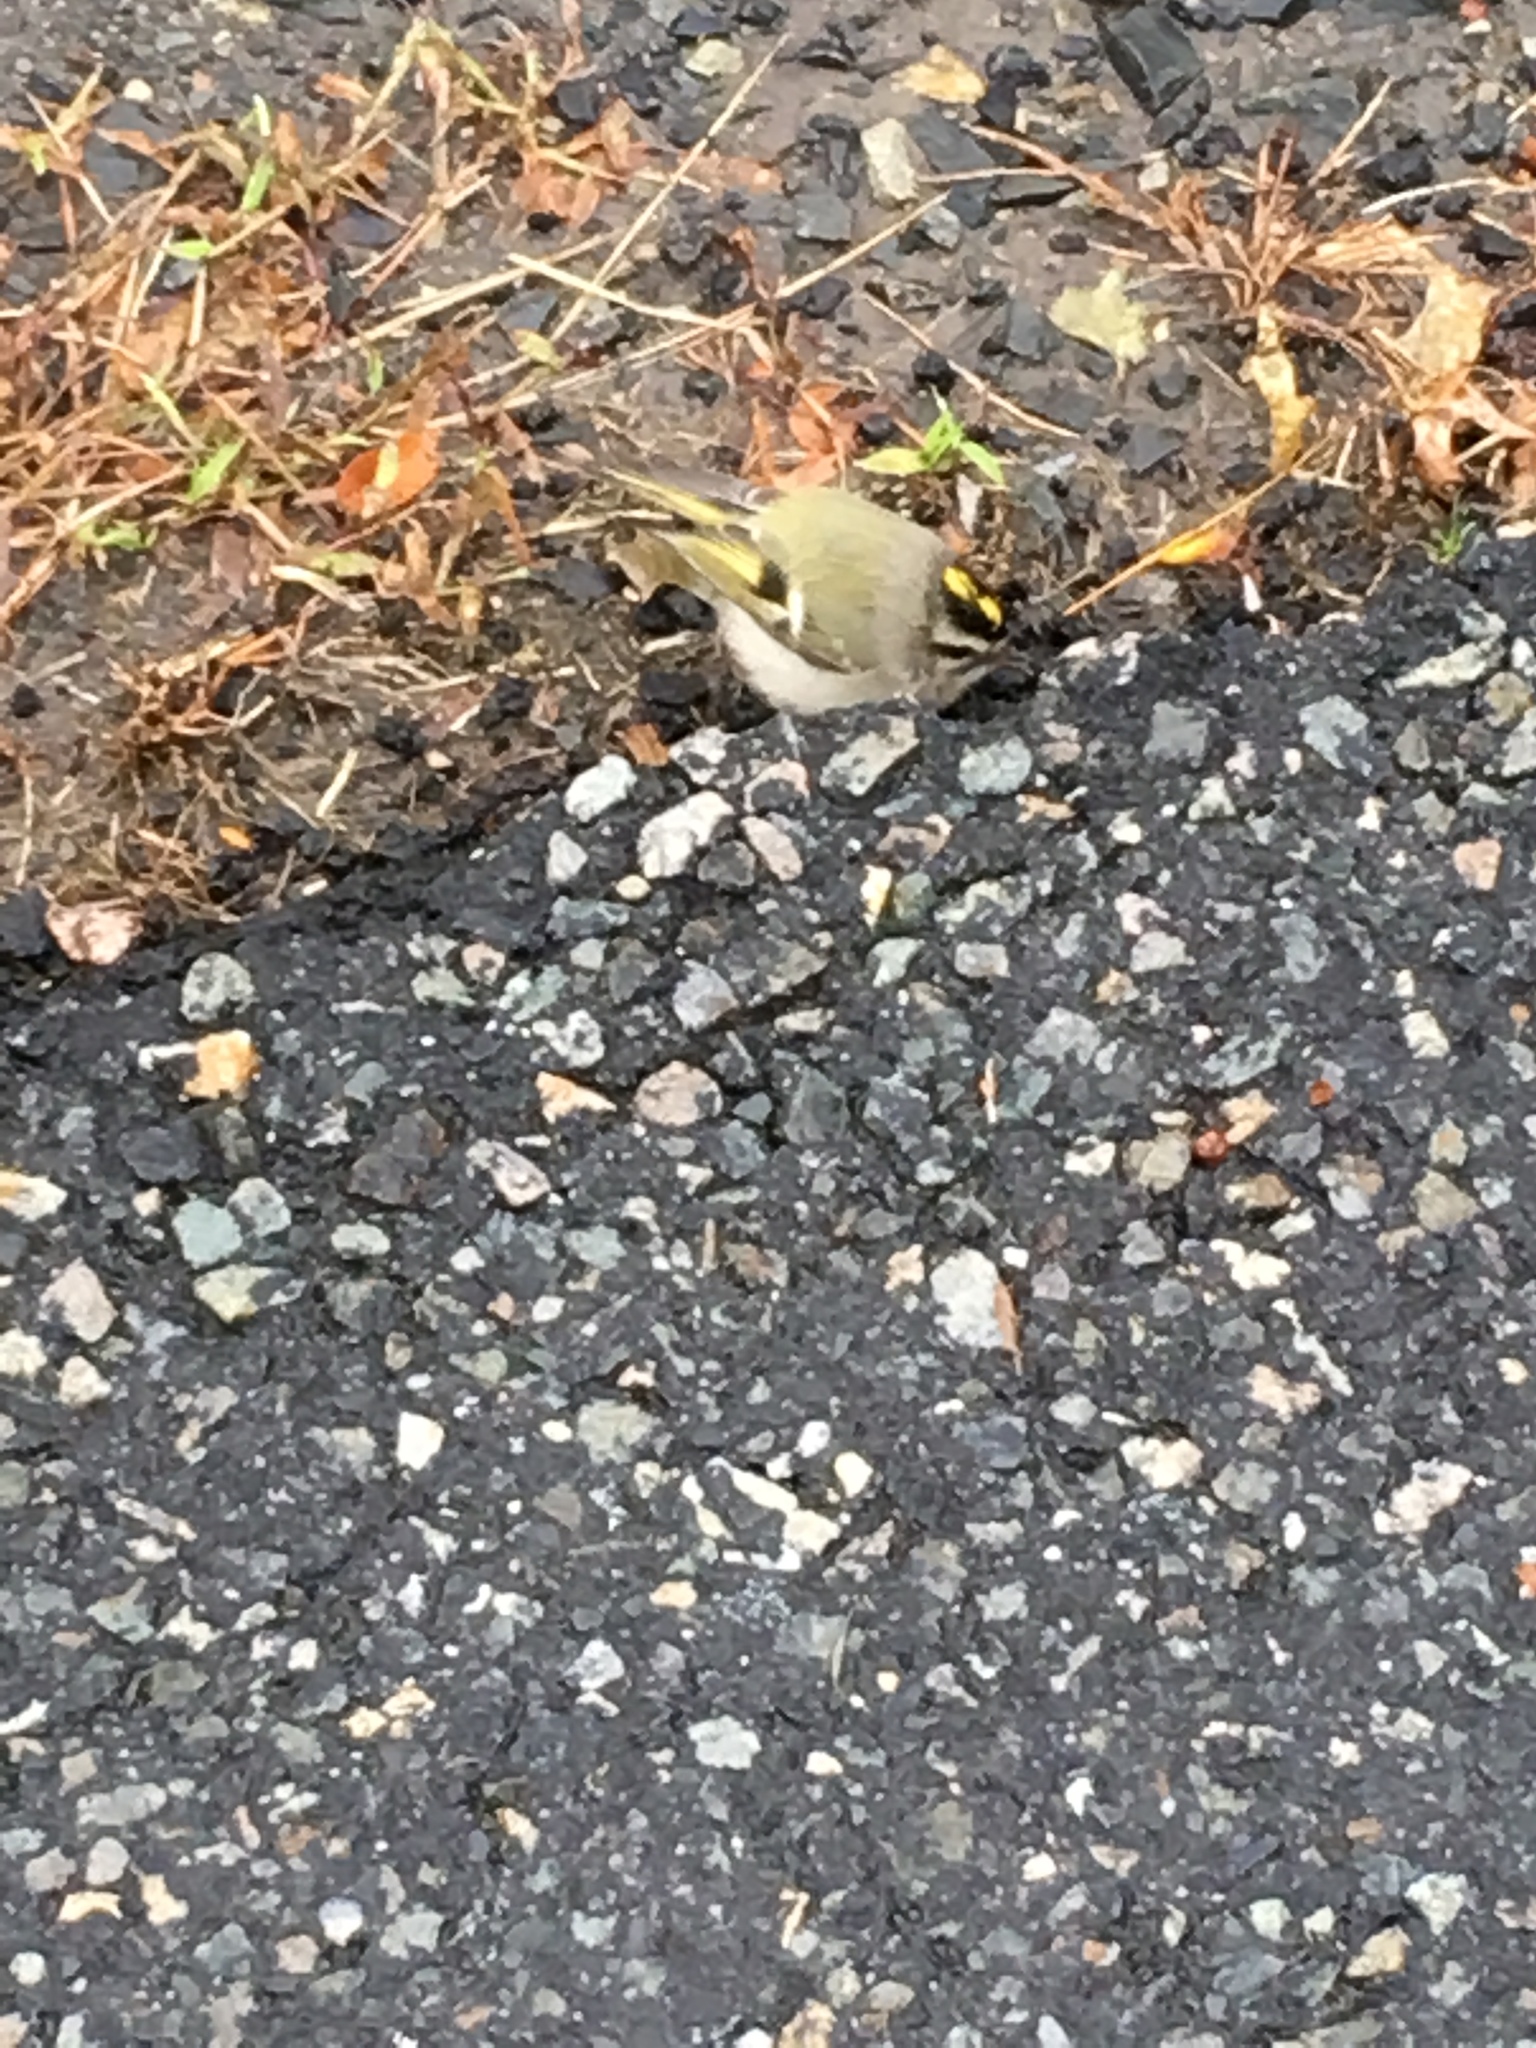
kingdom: Animalia
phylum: Chordata
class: Aves
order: Passeriformes
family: Regulidae
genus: Regulus
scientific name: Regulus satrapa
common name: Golden-crowned kinglet
